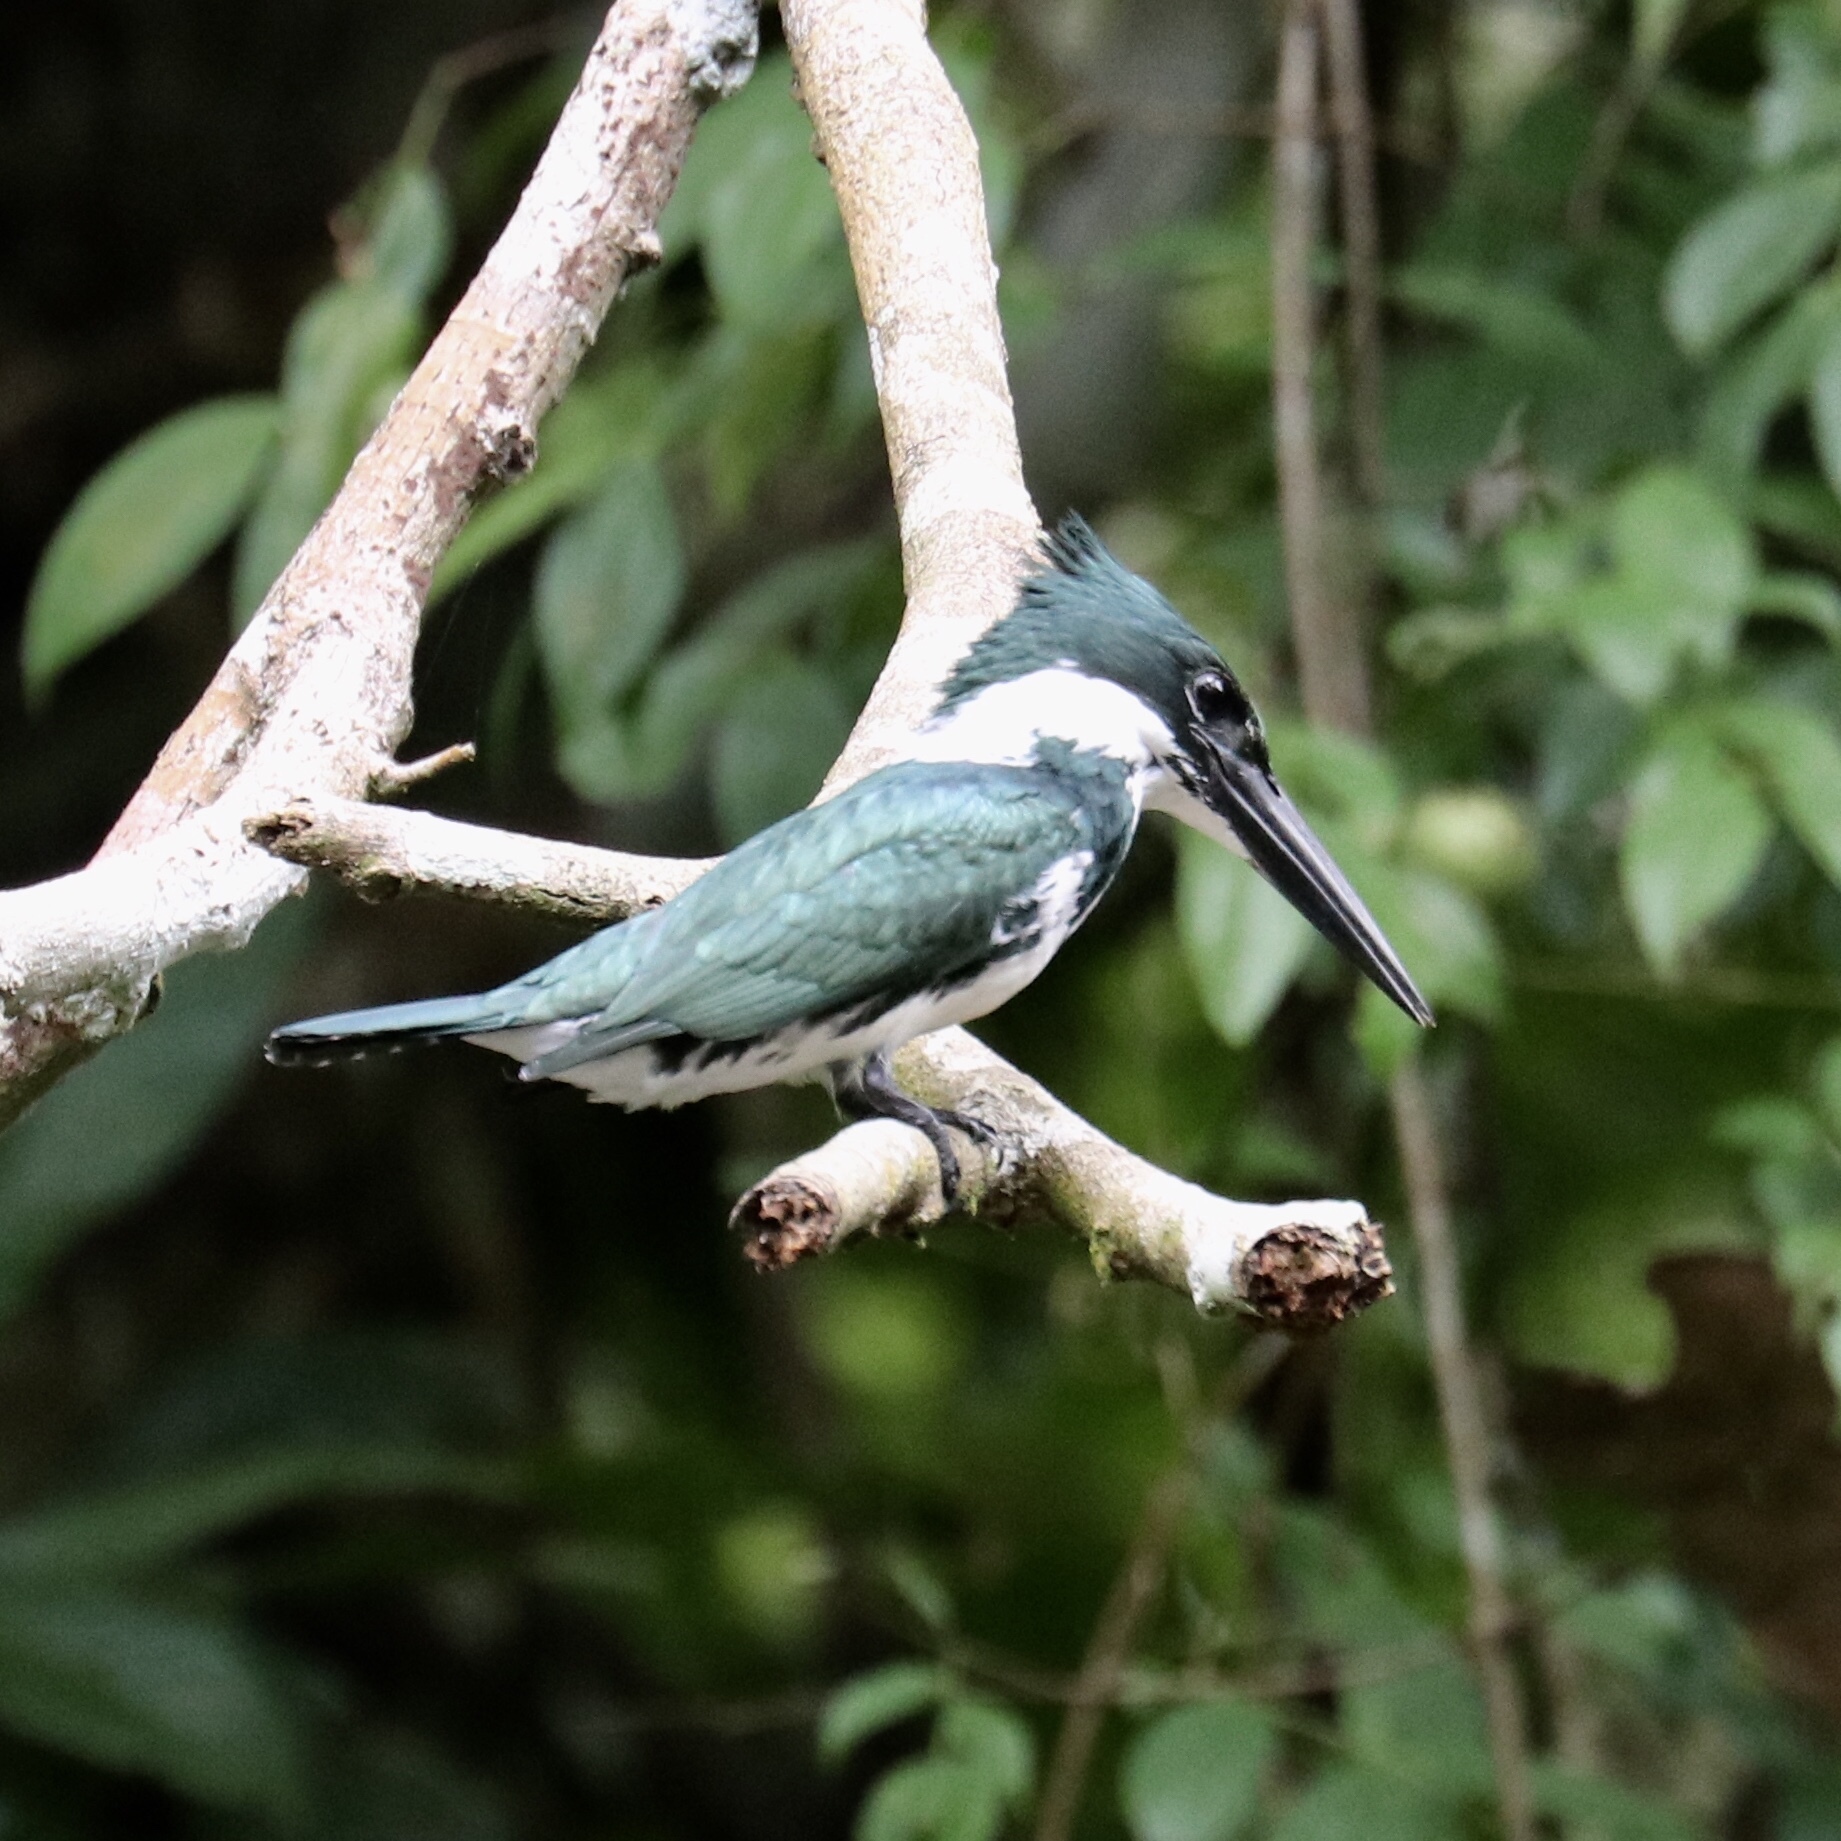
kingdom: Animalia
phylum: Chordata
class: Aves
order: Coraciiformes
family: Alcedinidae
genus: Chloroceryle
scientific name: Chloroceryle amazona
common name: Amazon kingfisher
